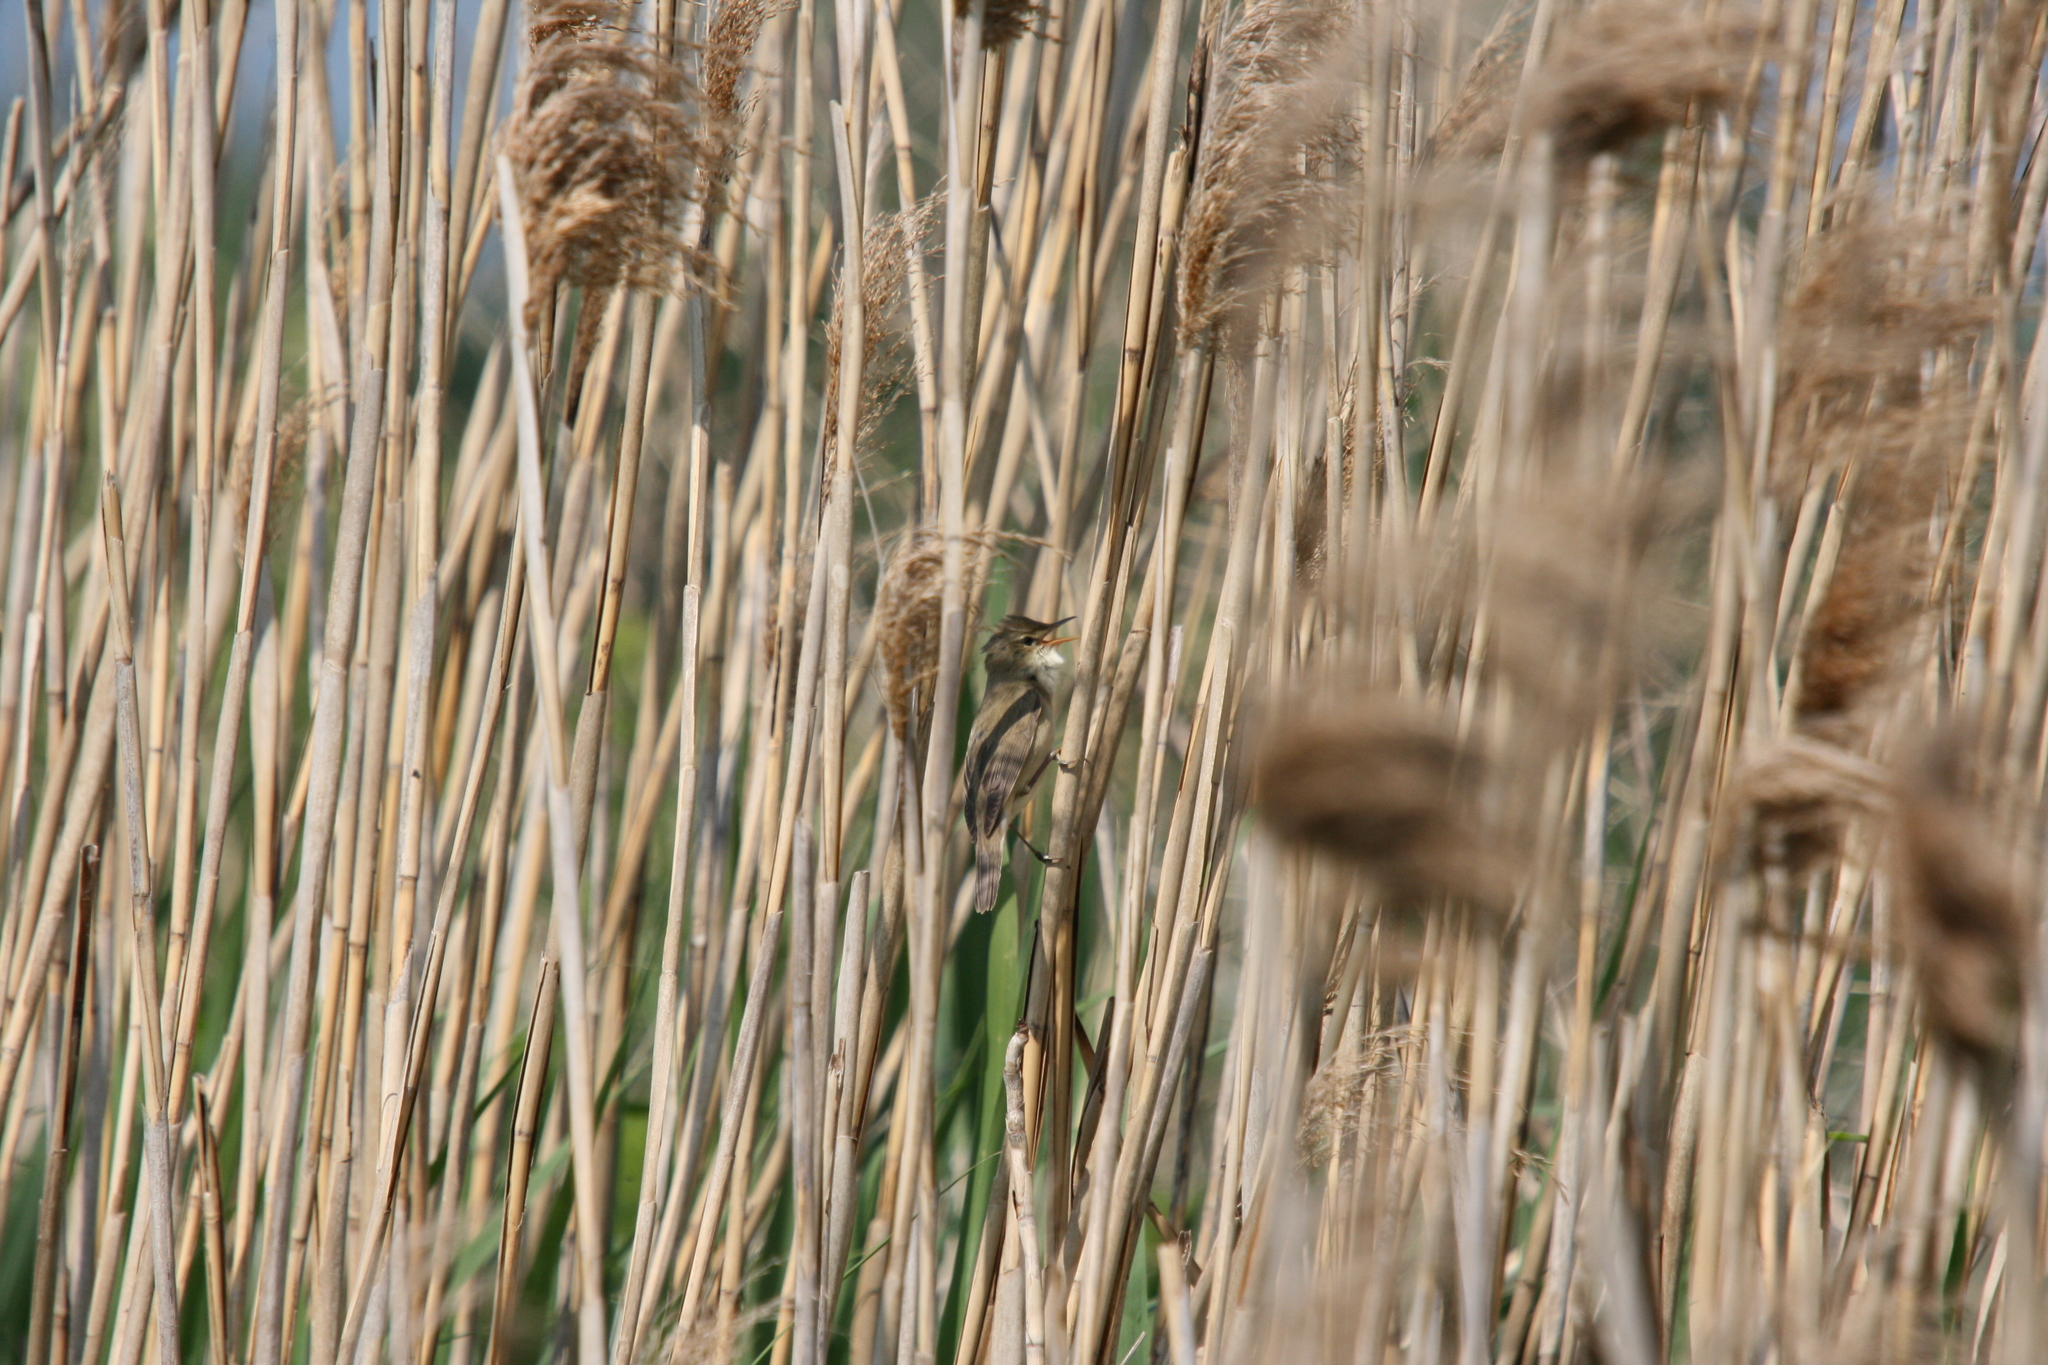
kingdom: Animalia
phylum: Chordata
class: Aves
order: Passeriformes
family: Acrocephalidae
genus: Acrocephalus
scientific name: Acrocephalus palustris
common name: Marsh warbler
